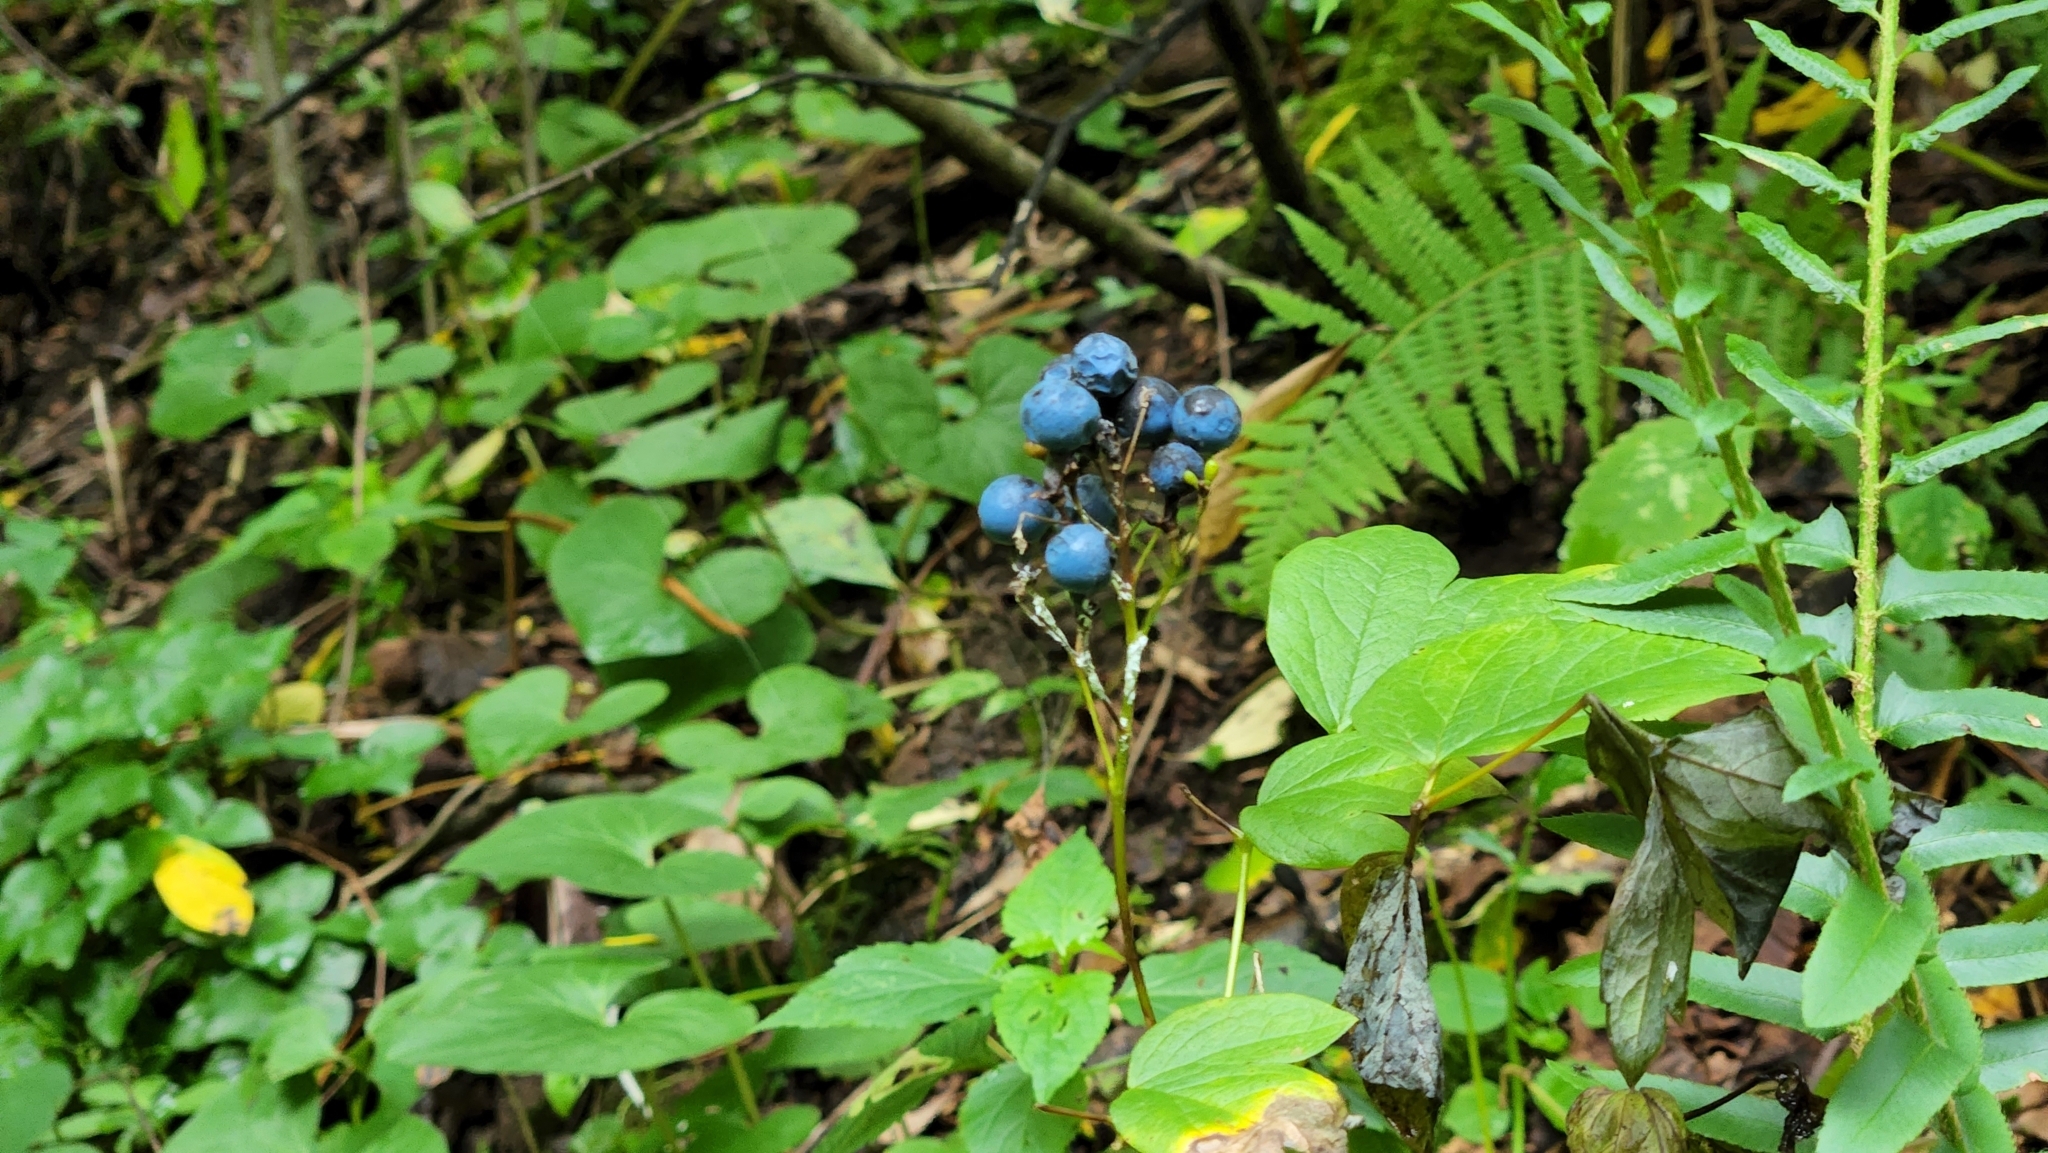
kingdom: Plantae
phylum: Tracheophyta
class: Magnoliopsida
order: Ranunculales
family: Berberidaceae
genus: Caulophyllum
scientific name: Caulophyllum thalictroides
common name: Blue cohosh
